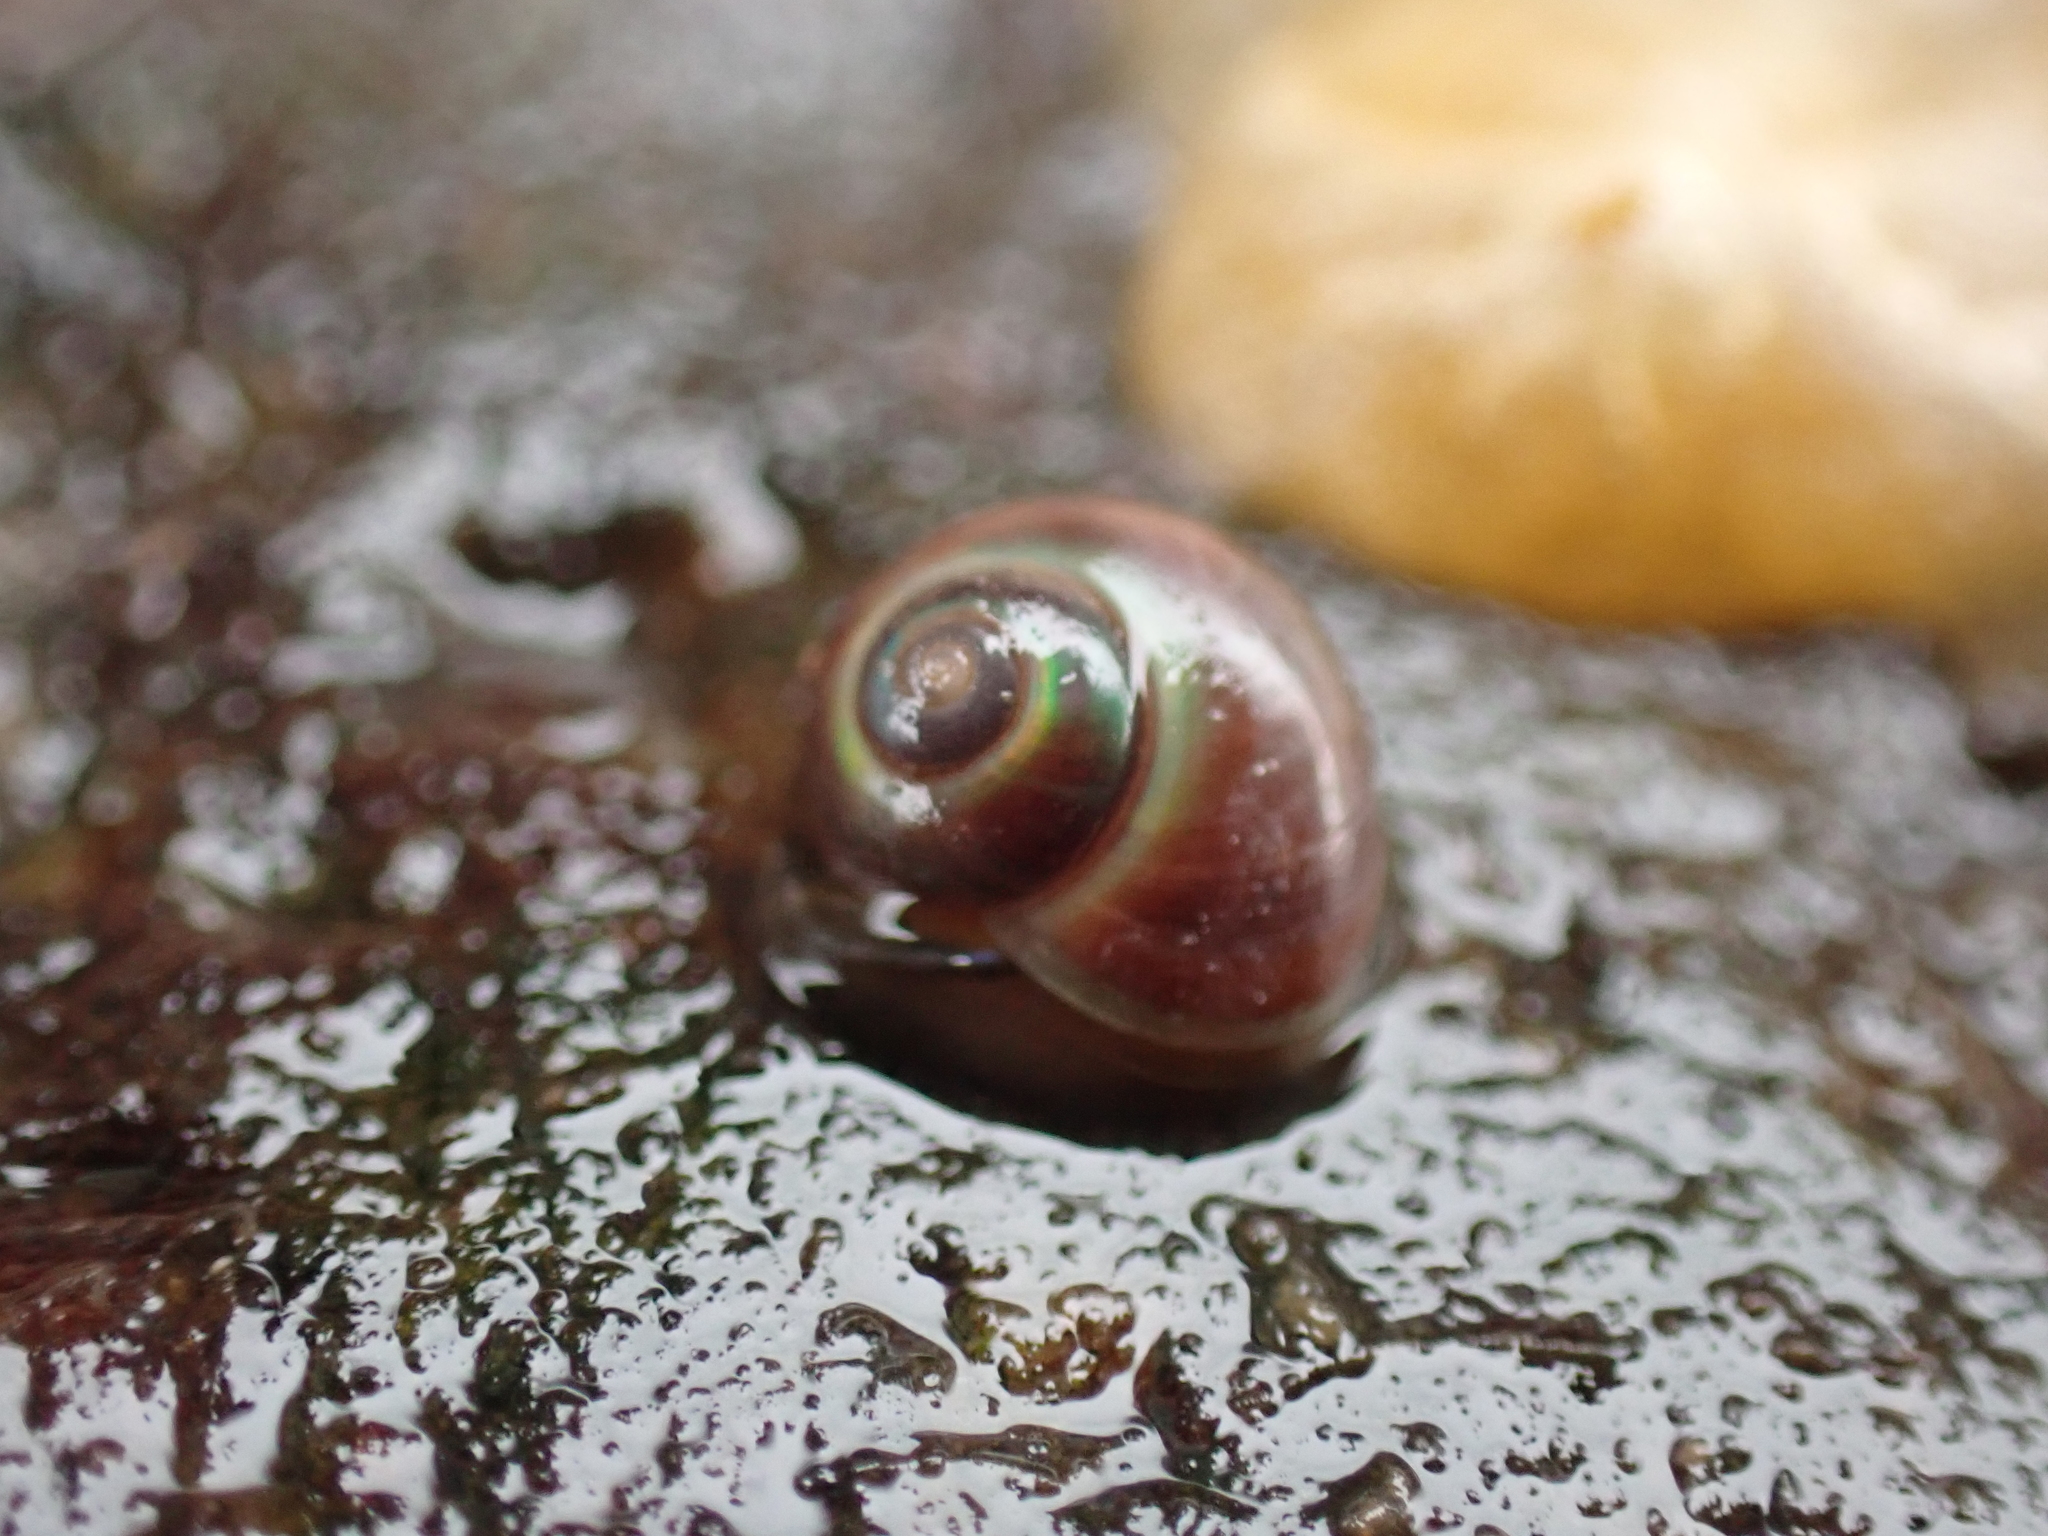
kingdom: Animalia
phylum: Mollusca
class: Gastropoda
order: Trochida
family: Margaritidae
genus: Margarites
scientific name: Margarites helicinus
